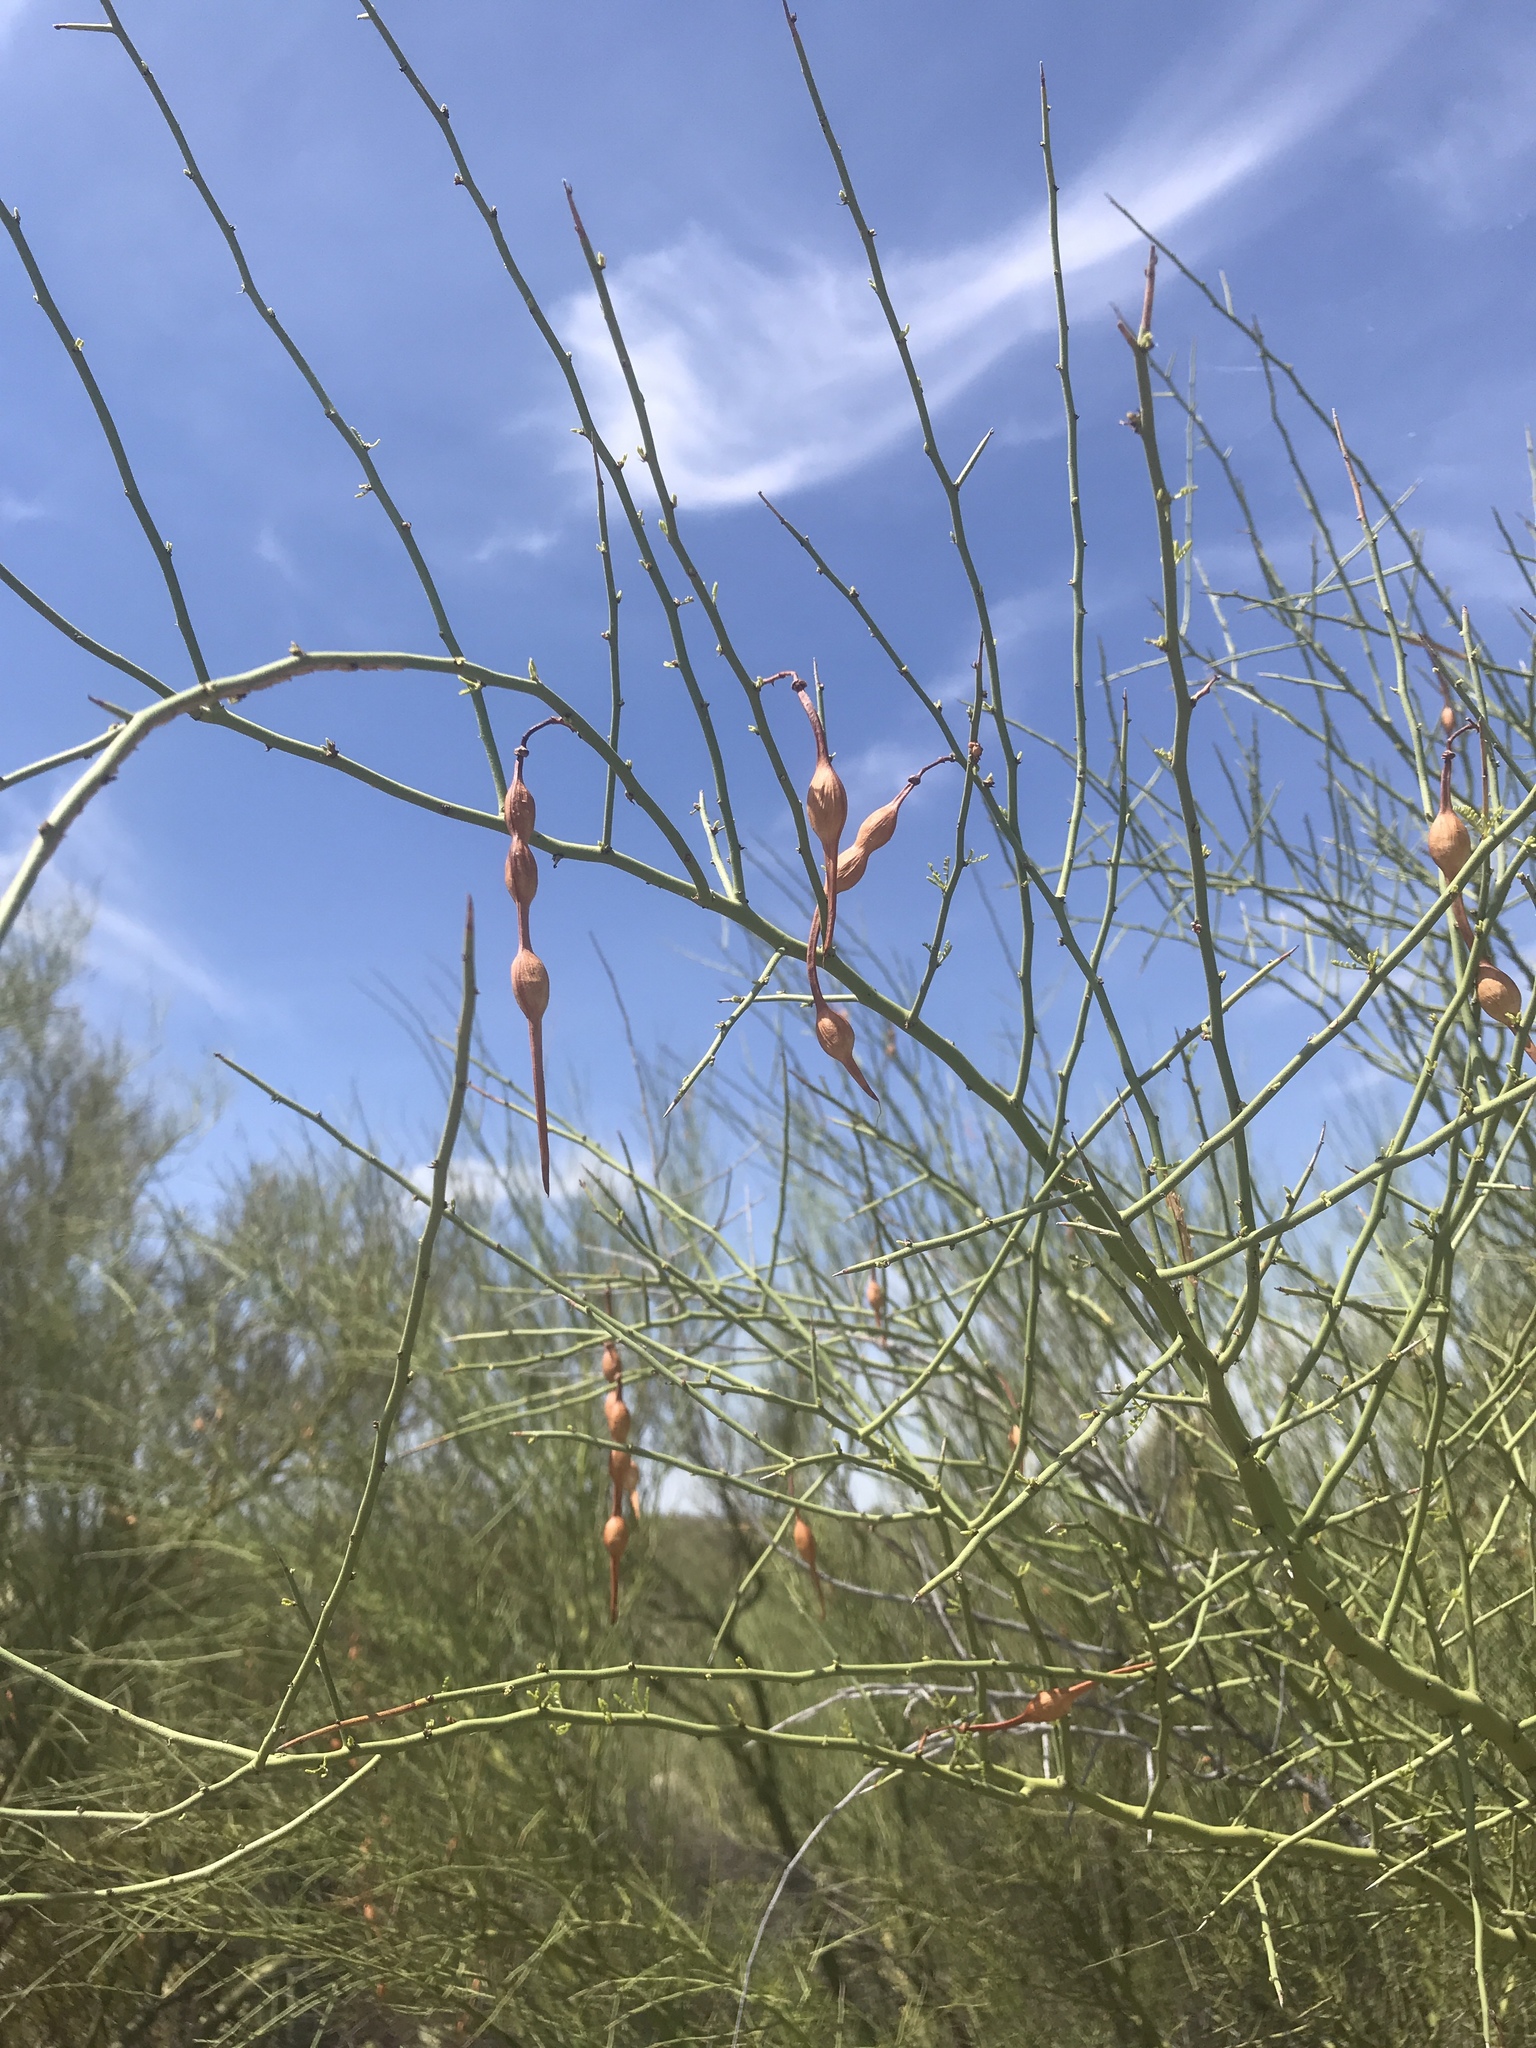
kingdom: Plantae
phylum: Tracheophyta
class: Magnoliopsida
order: Fabales
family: Fabaceae
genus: Parkinsonia
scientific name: Parkinsonia microphylla
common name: Yellow paloverde
